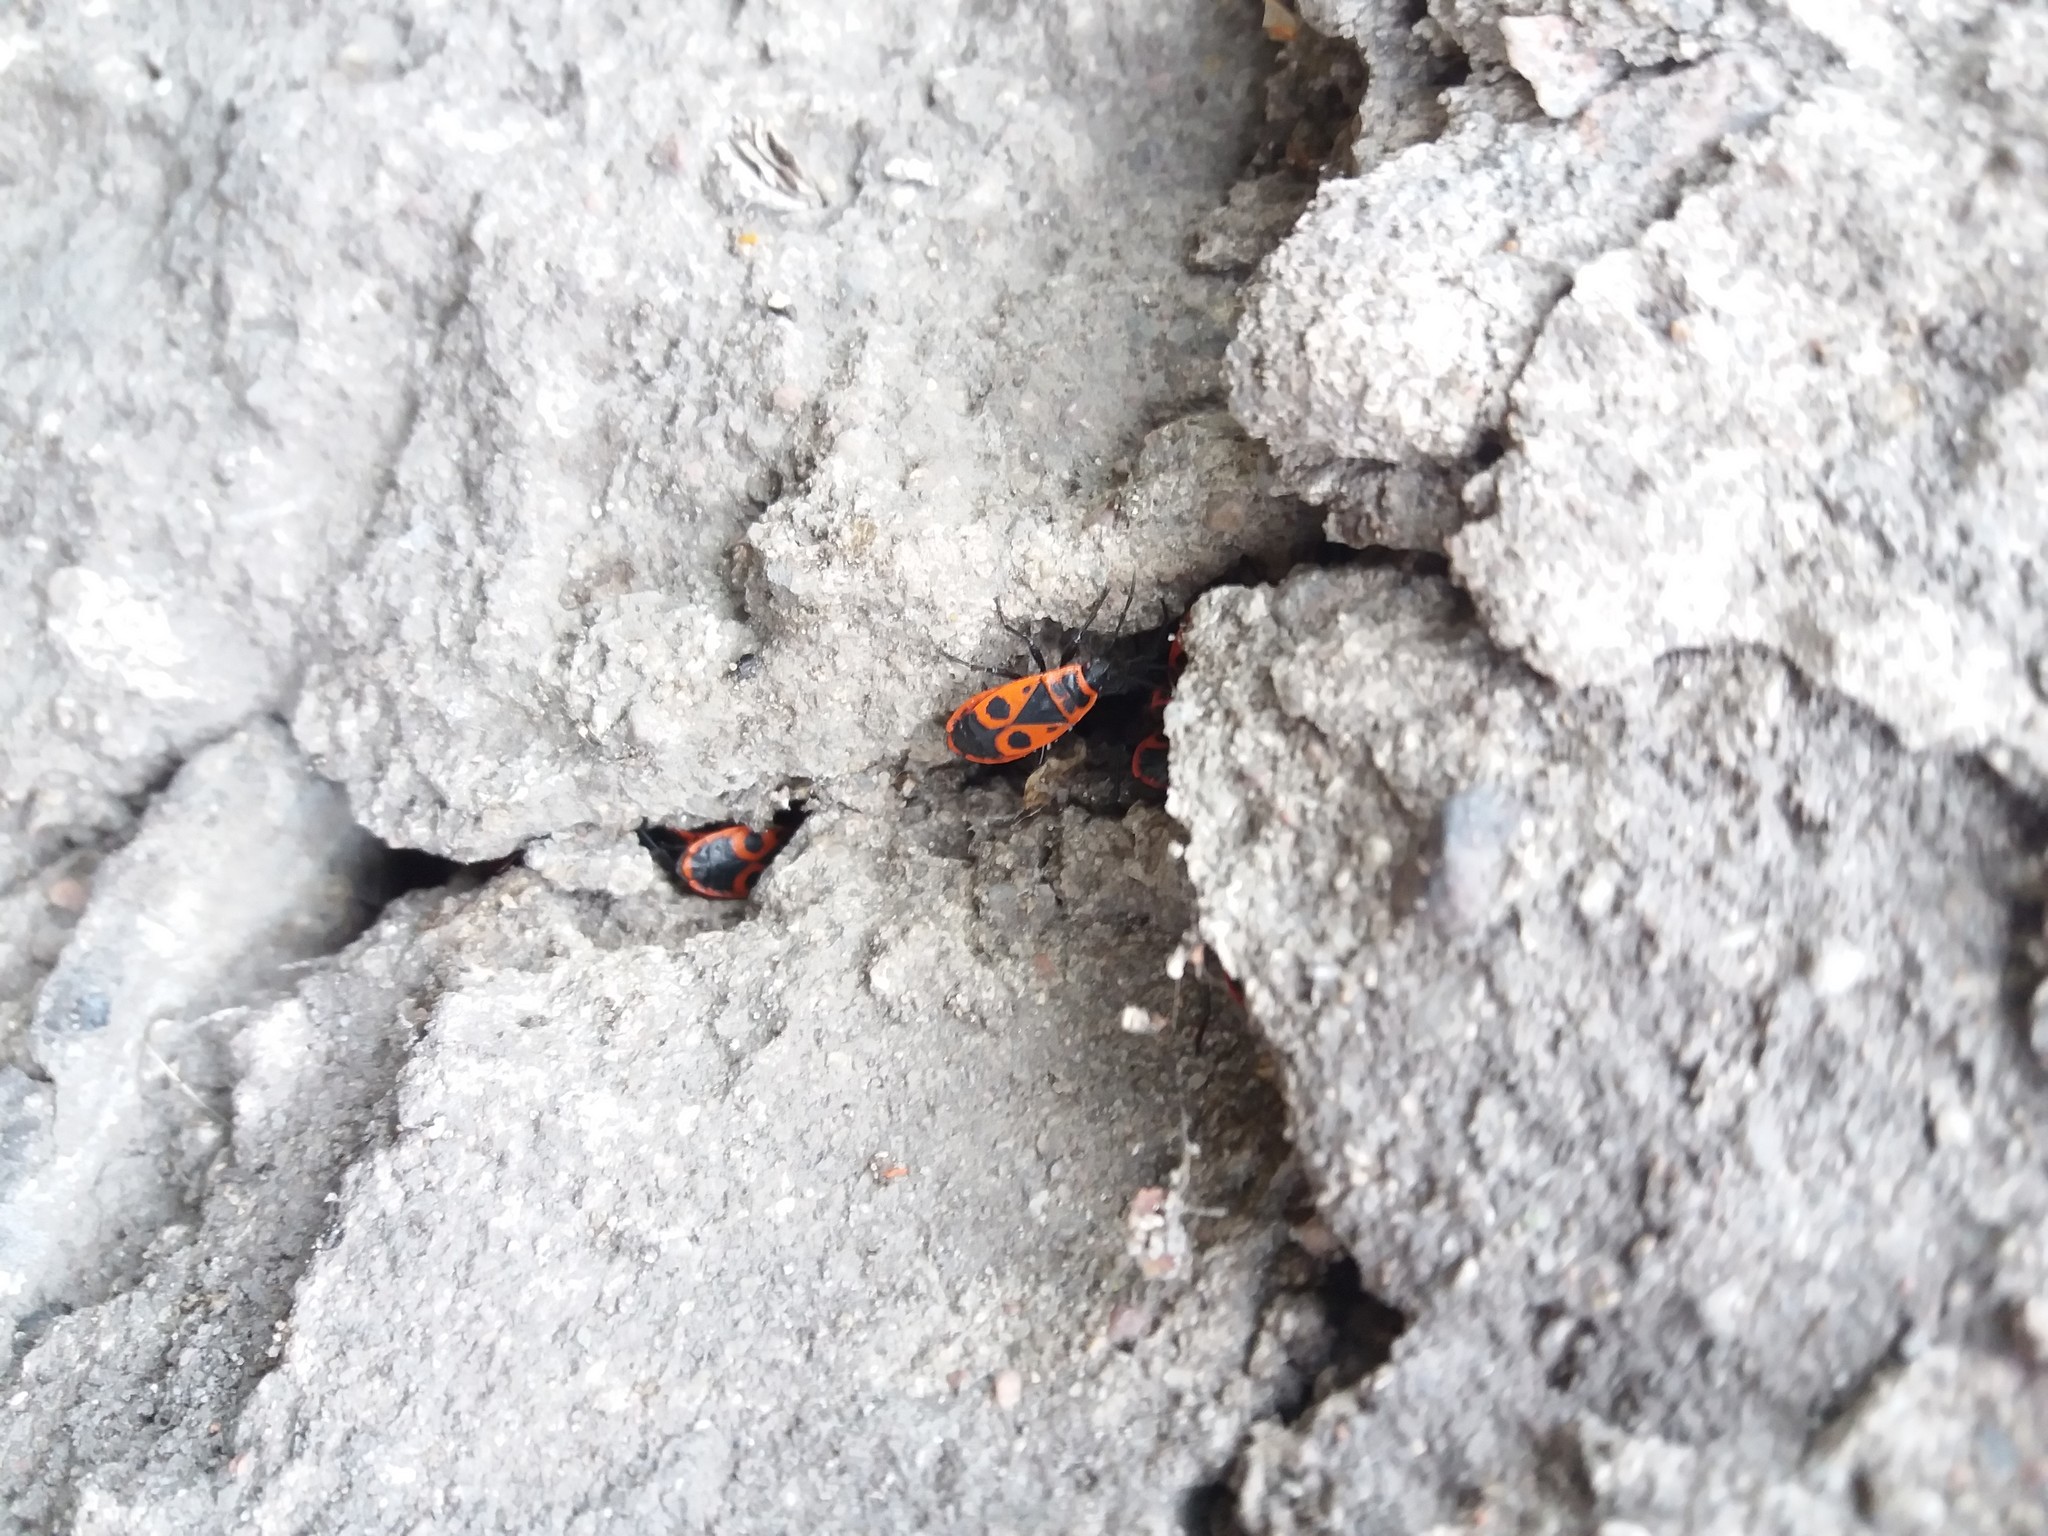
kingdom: Animalia
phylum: Arthropoda
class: Insecta
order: Hemiptera
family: Pyrrhocoridae
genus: Pyrrhocoris
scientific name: Pyrrhocoris apterus
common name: Firebug
